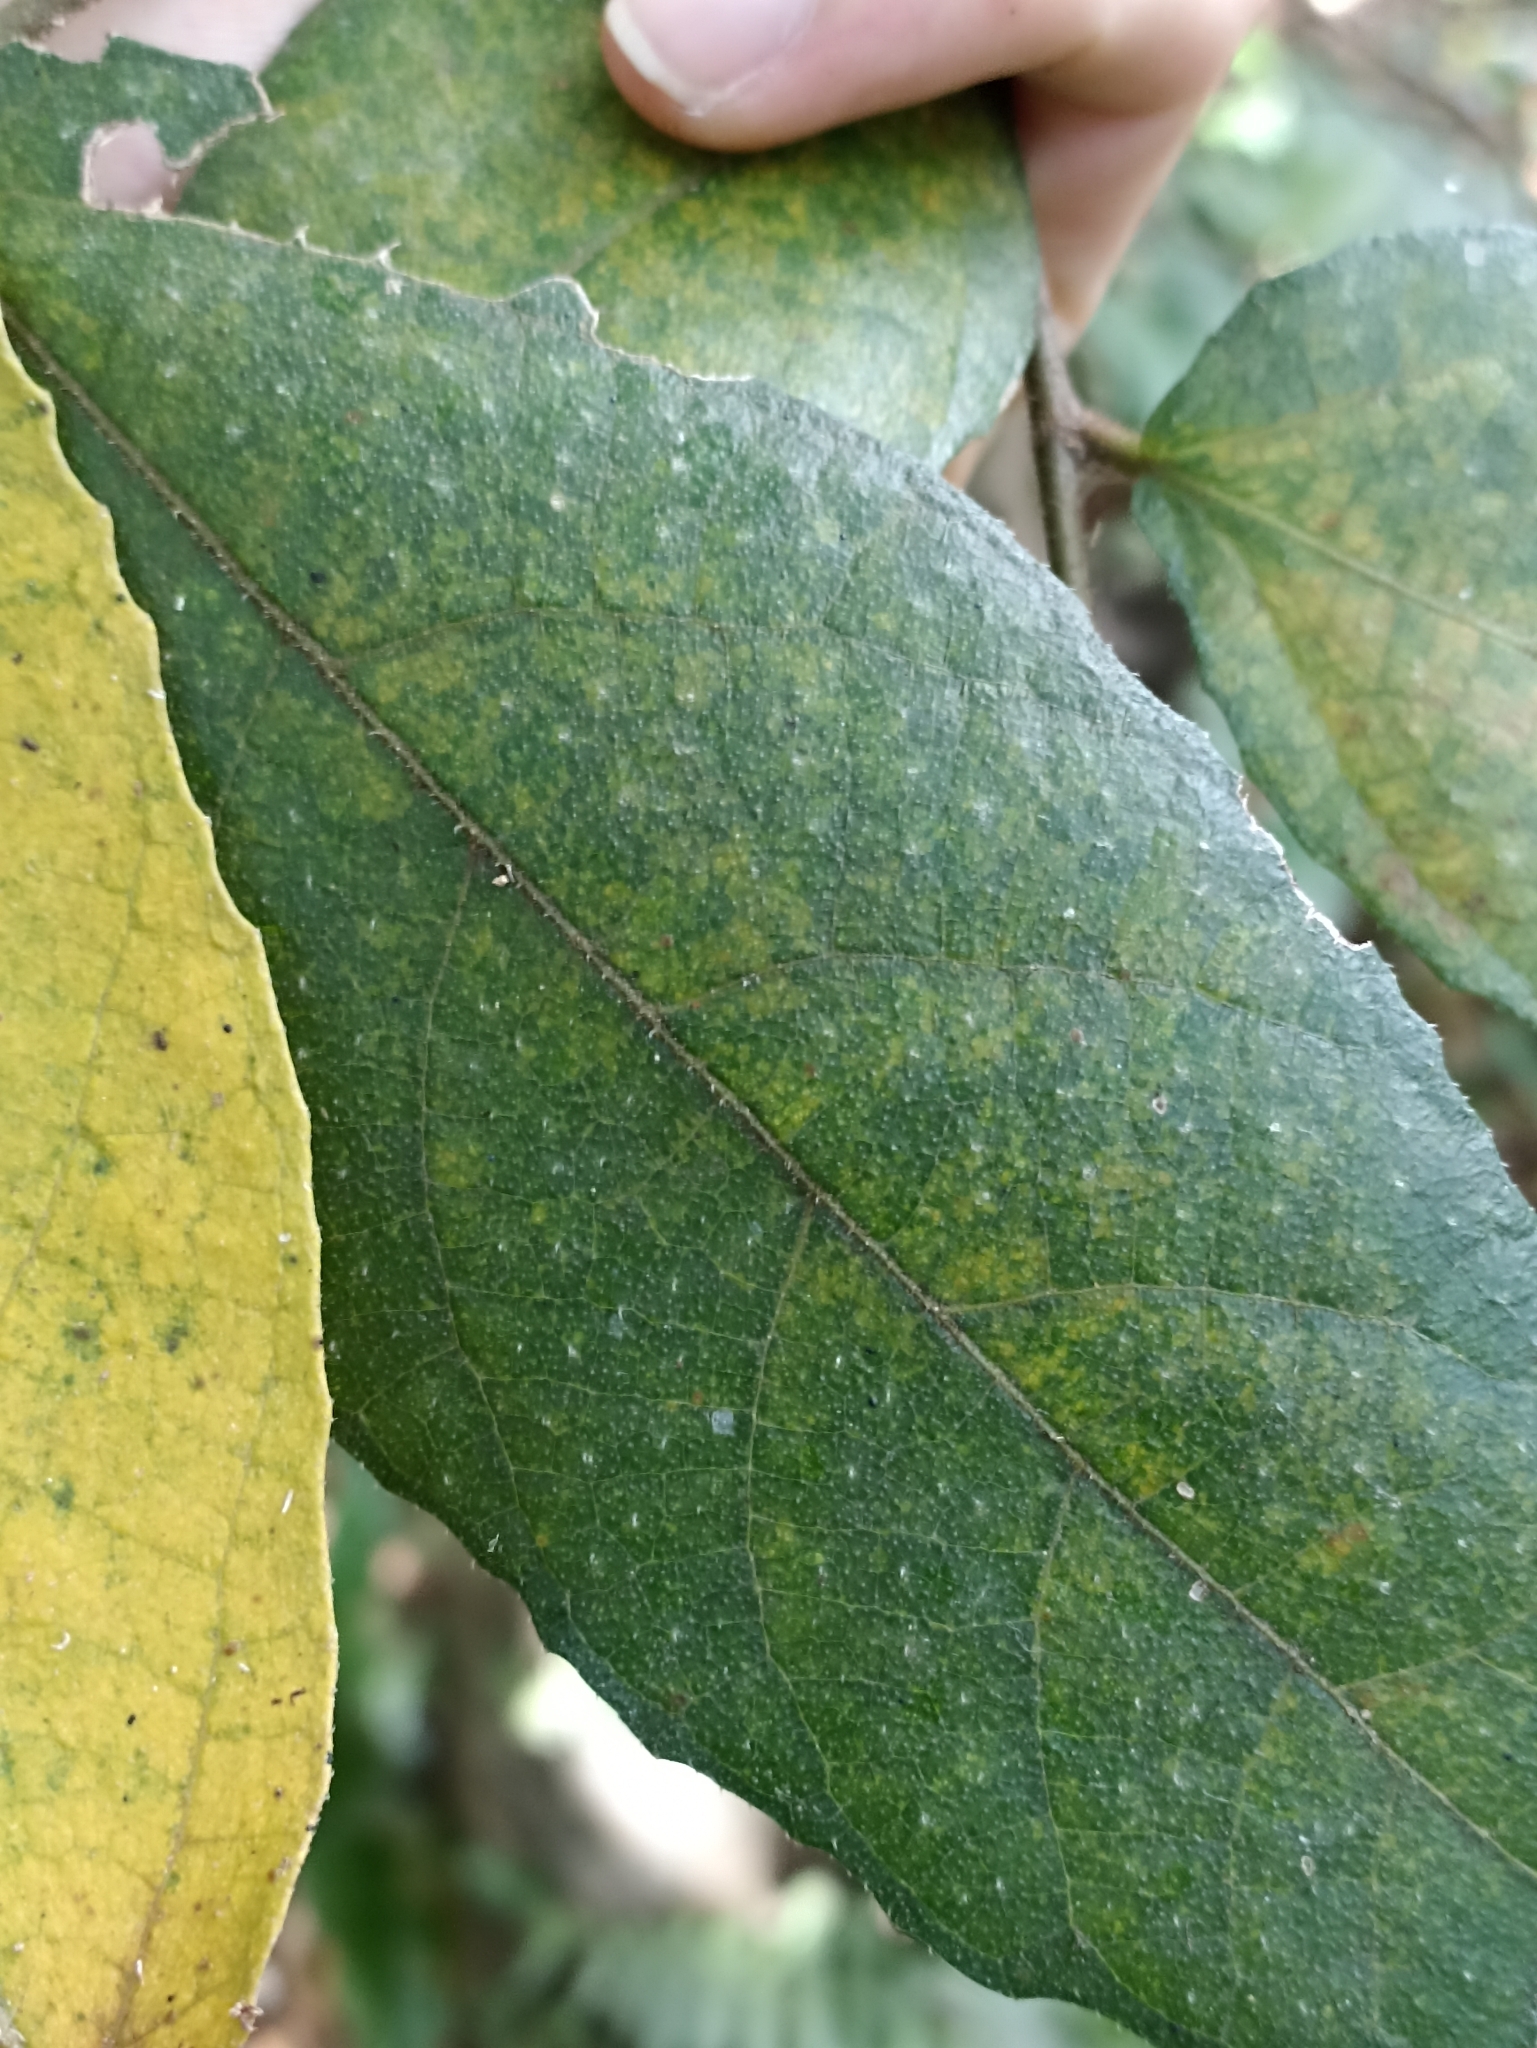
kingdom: Plantae
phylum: Tracheophyta
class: Magnoliopsida
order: Rosales
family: Moraceae
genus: Ficus
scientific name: Ficus coronata
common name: Creek sandpaper fig
